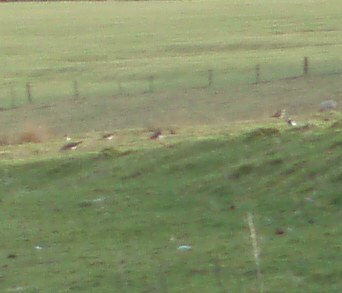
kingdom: Animalia
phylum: Chordata
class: Aves
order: Charadriiformes
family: Charadriidae
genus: Vanellus
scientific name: Vanellus vanellus
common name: Northern lapwing
